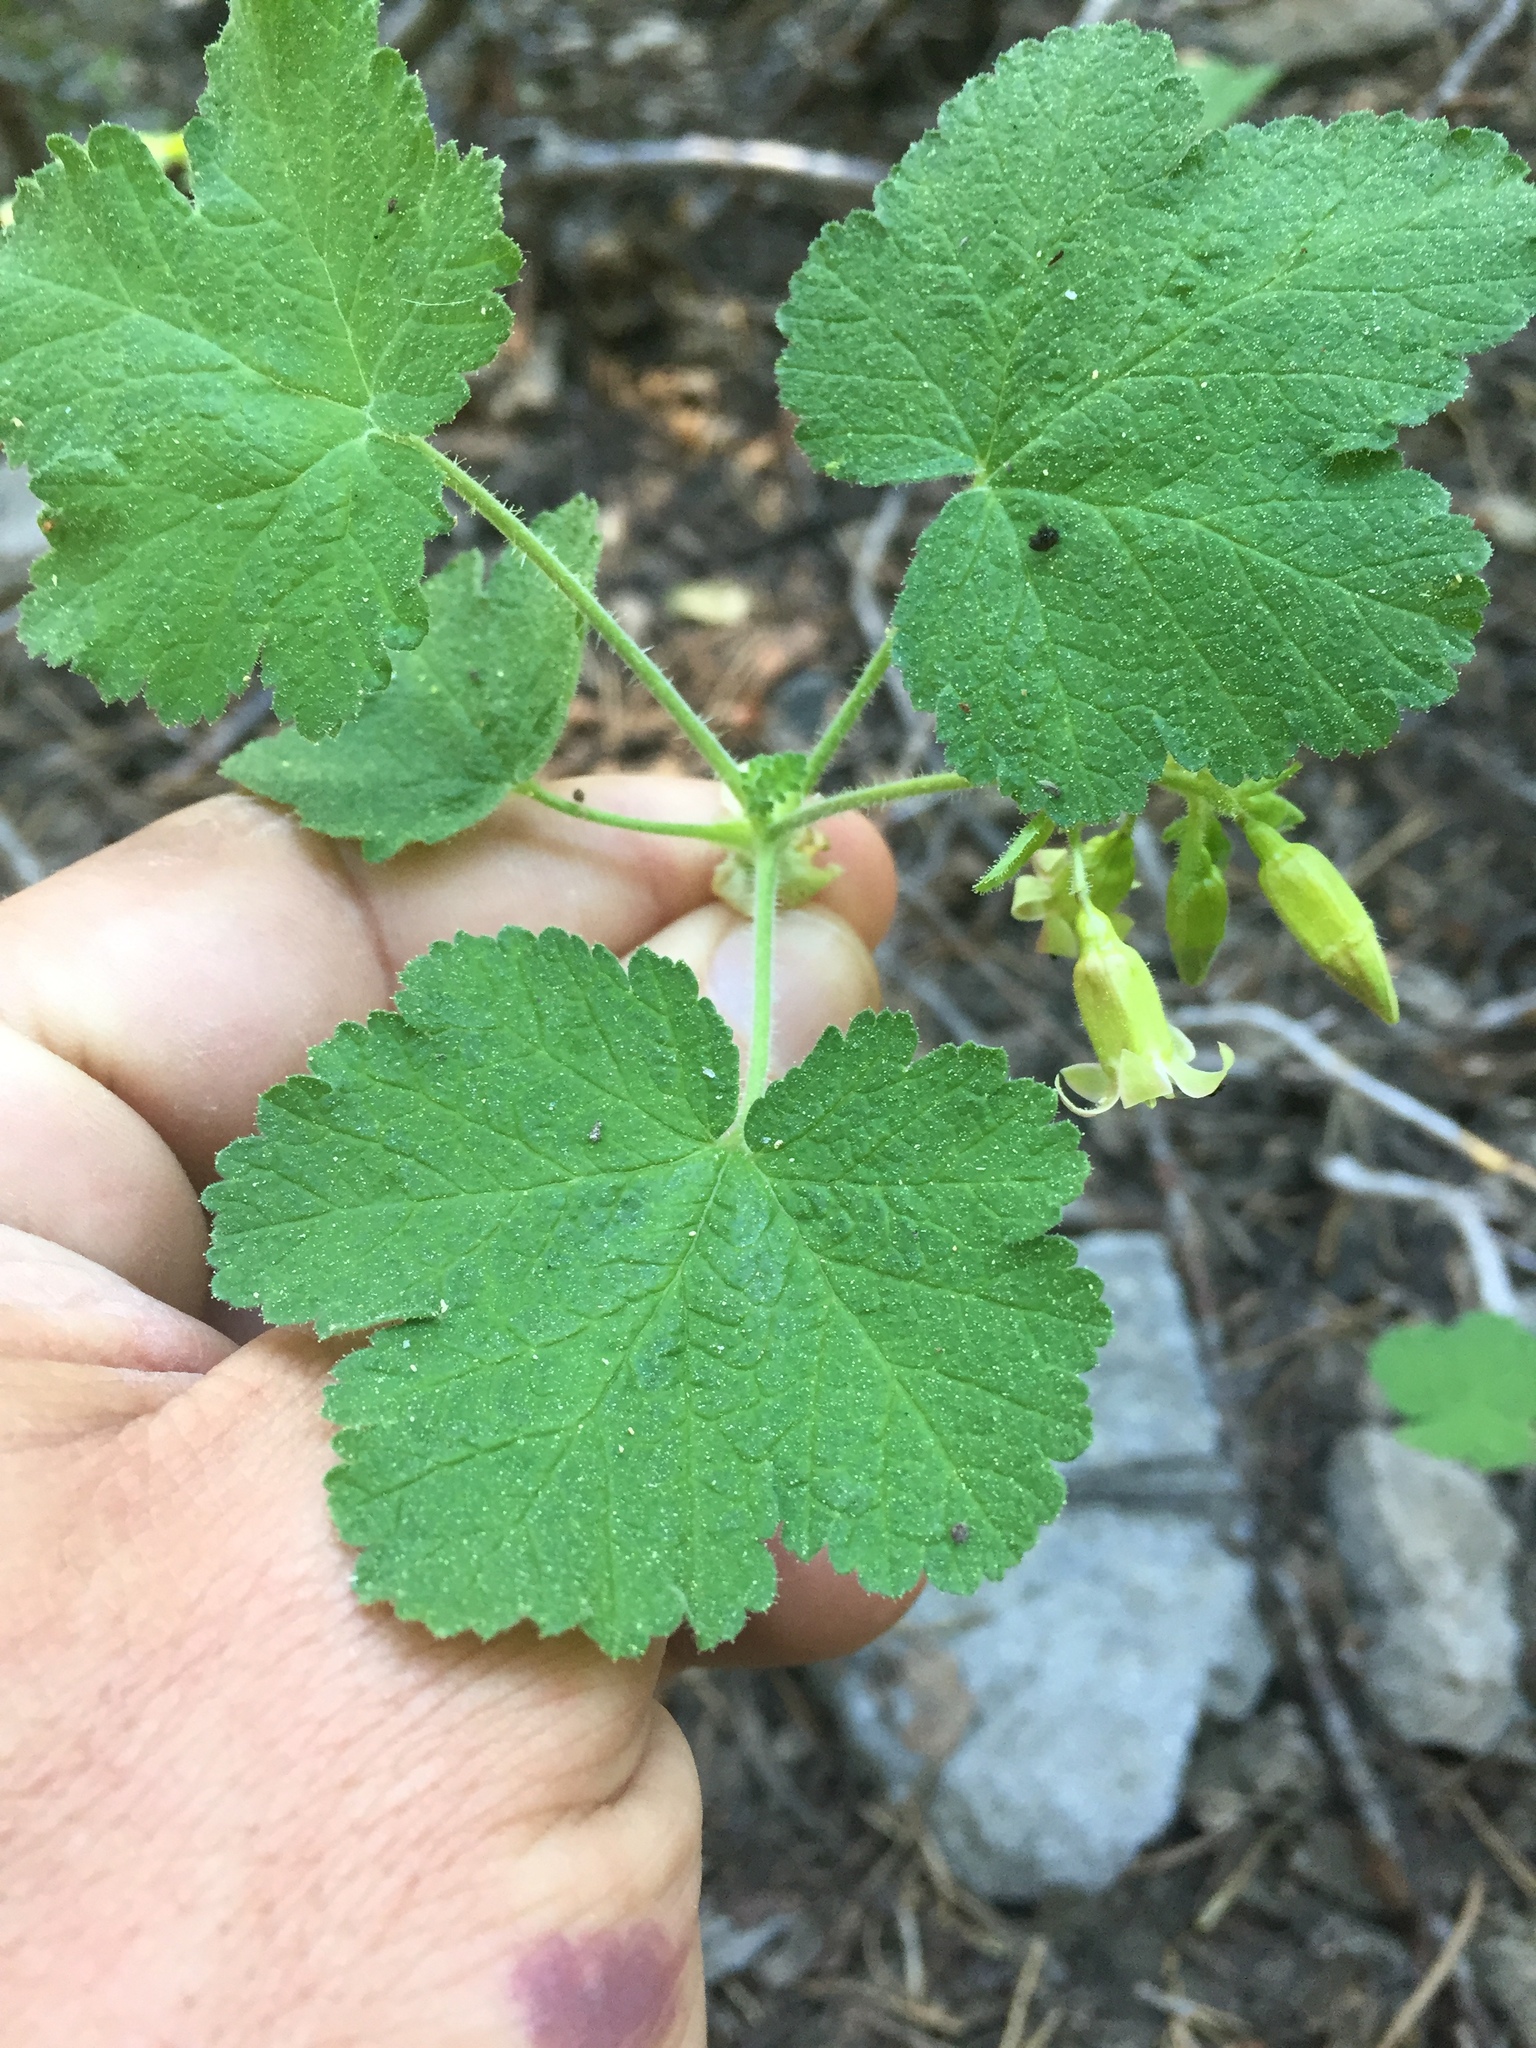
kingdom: Plantae
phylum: Tracheophyta
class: Magnoliopsida
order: Saxifragales
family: Grossulariaceae
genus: Ribes
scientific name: Ribes viscosissimum
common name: Sticky currant
